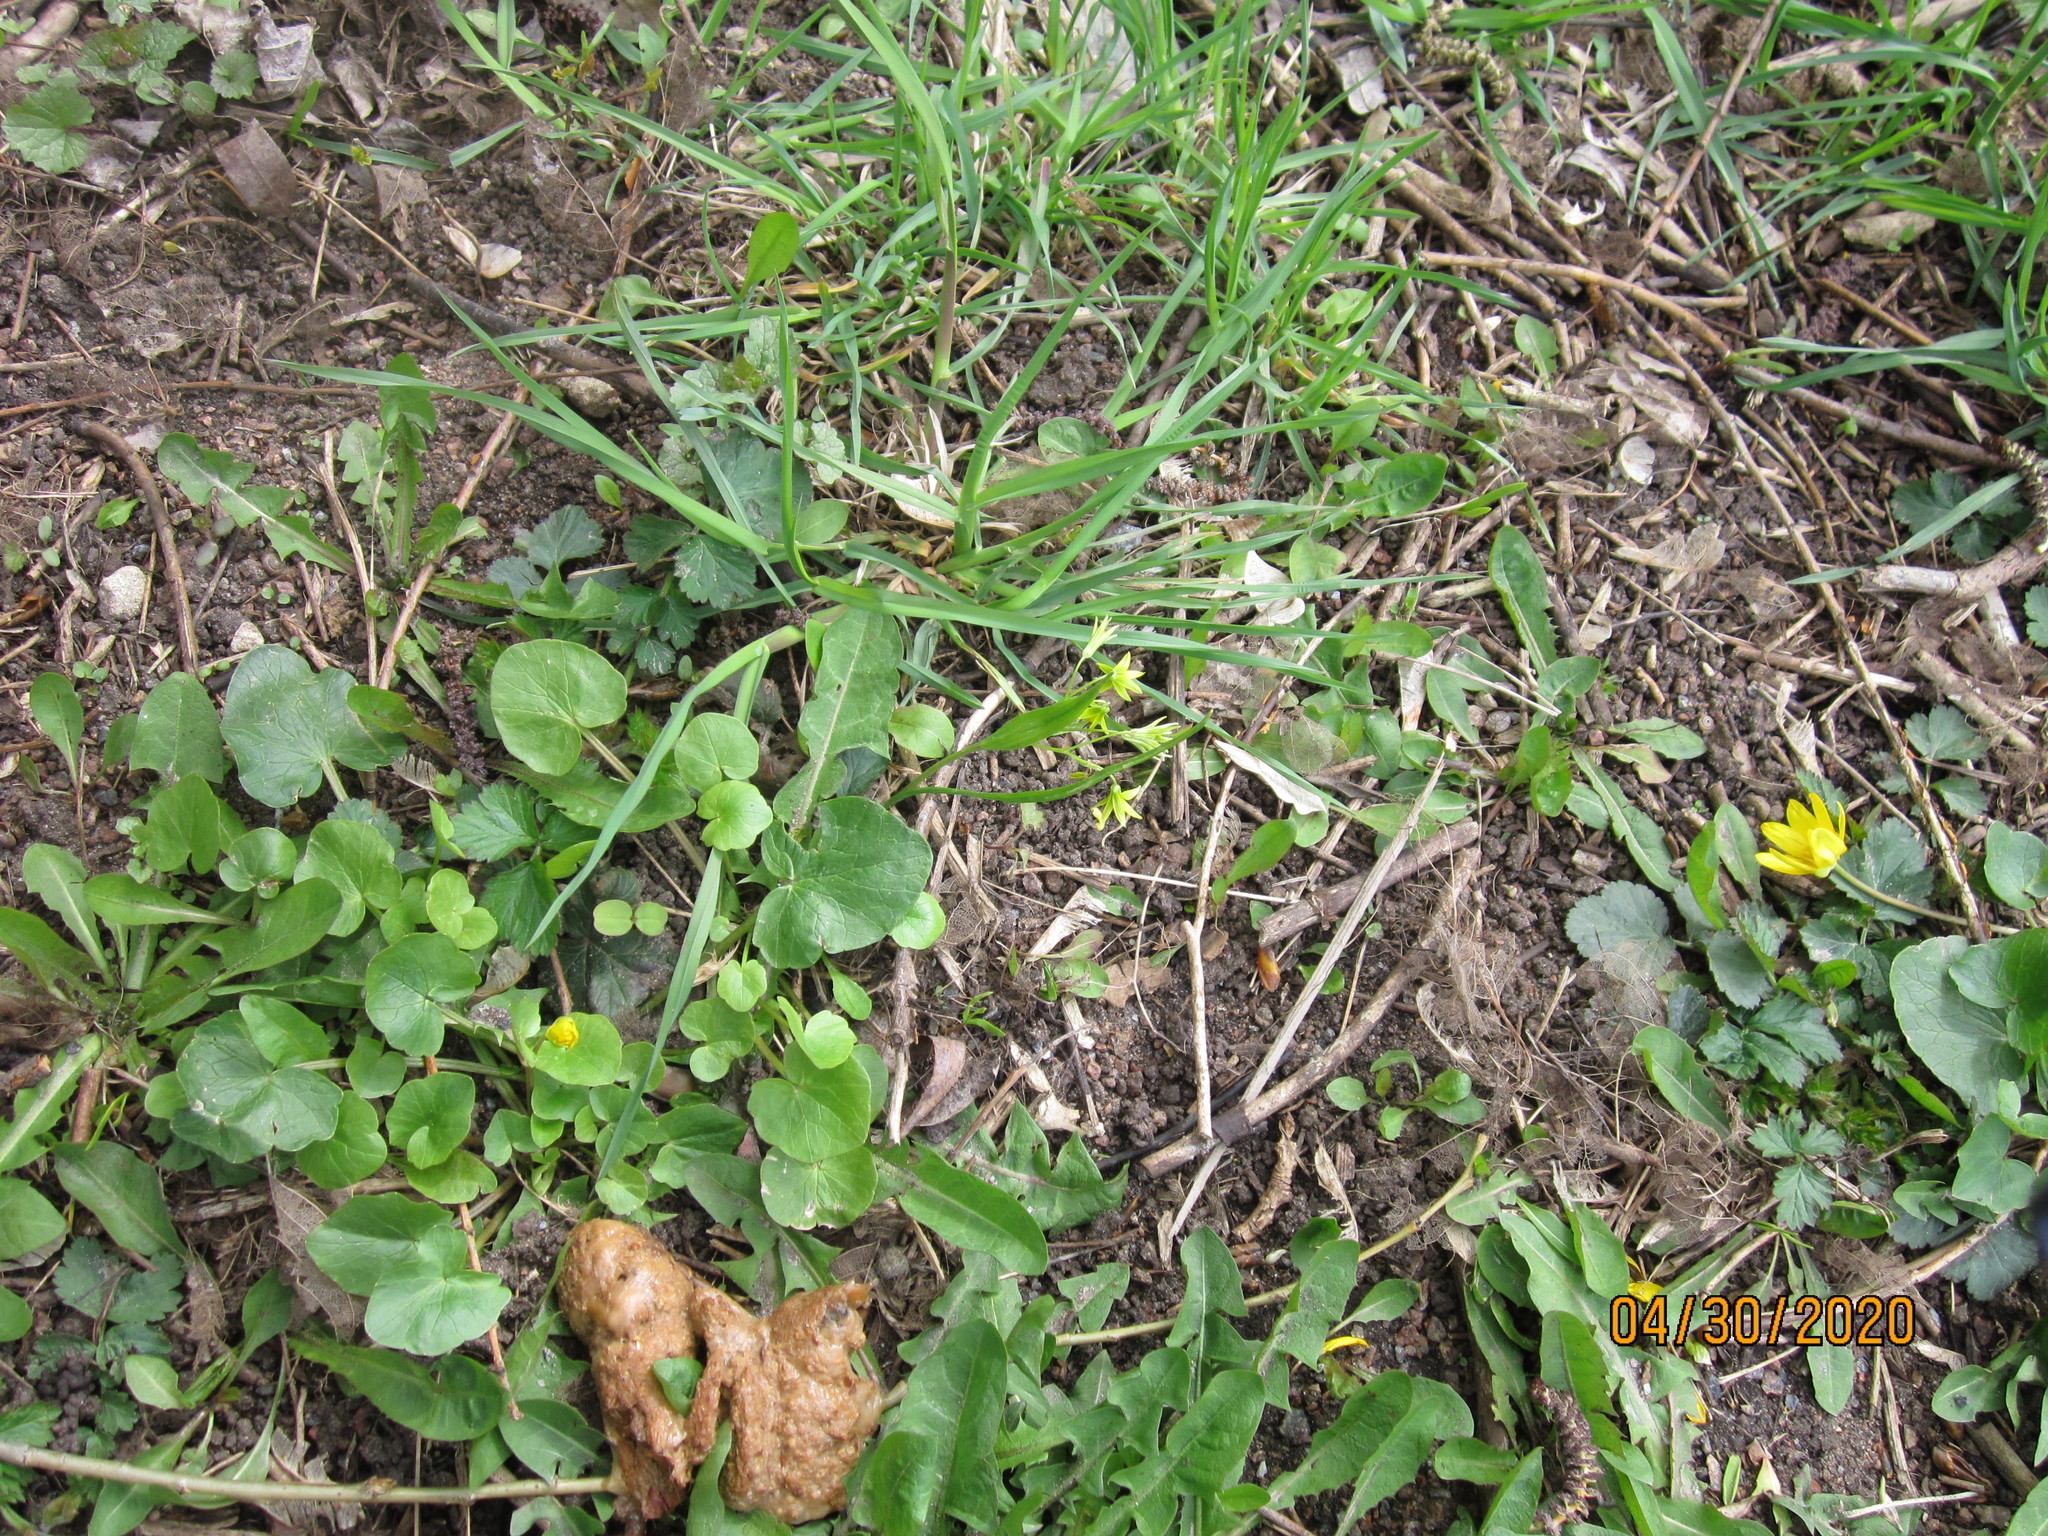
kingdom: Plantae
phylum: Tracheophyta
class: Liliopsida
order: Liliales
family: Liliaceae
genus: Gagea
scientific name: Gagea minima
